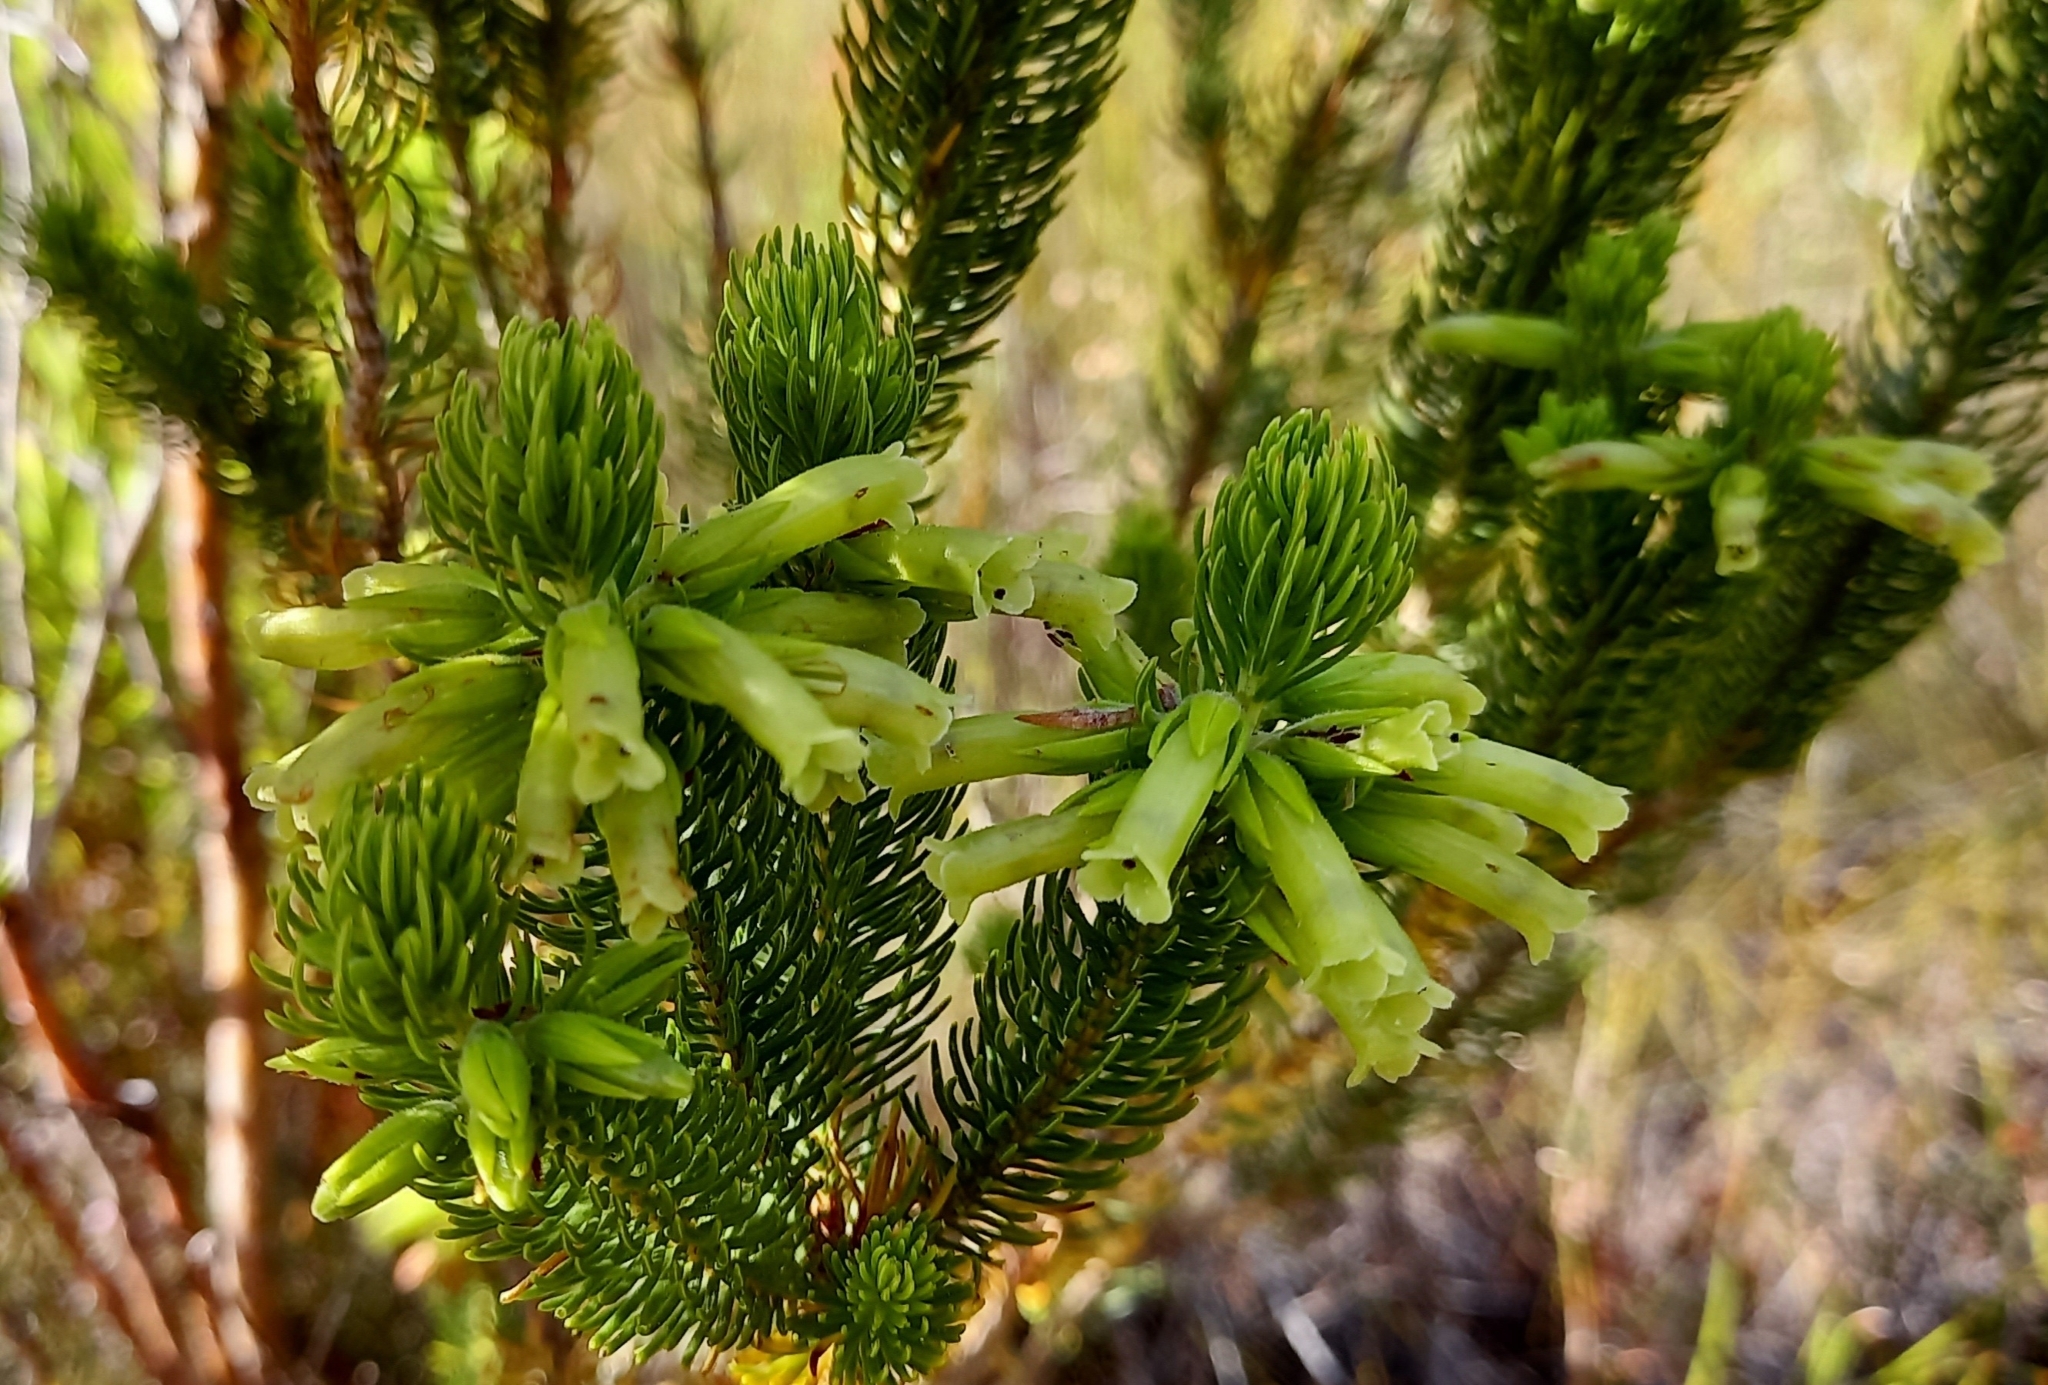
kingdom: Plantae
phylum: Tracheophyta
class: Magnoliopsida
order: Ericales
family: Ericaceae
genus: Erica
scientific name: Erica viscaria
